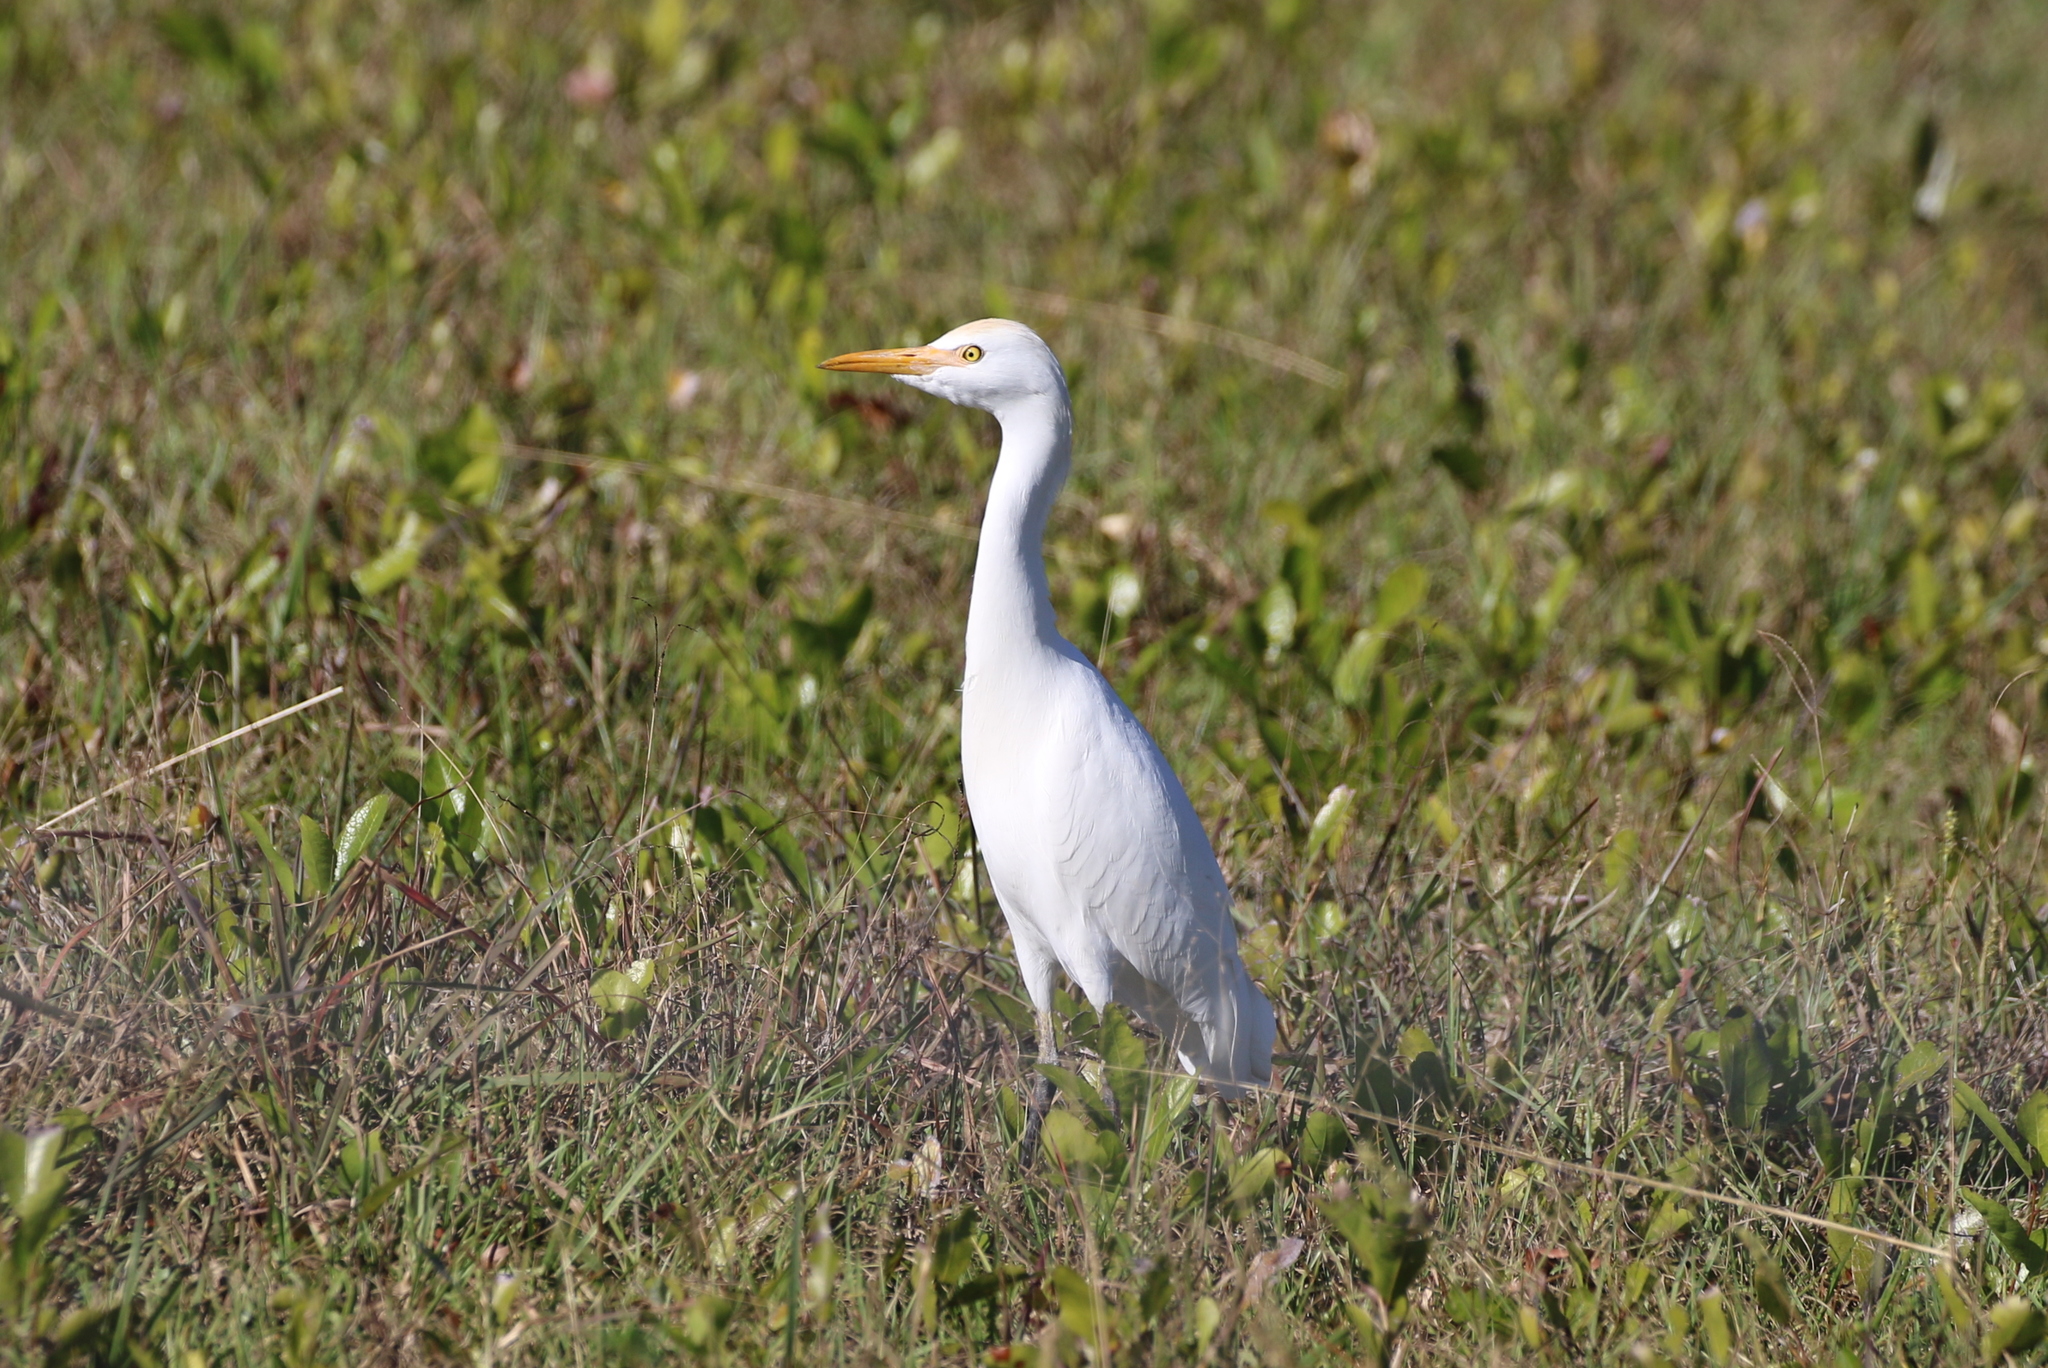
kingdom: Animalia
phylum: Chordata
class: Aves
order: Pelecaniformes
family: Ardeidae
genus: Bubulcus
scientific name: Bubulcus ibis
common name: Cattle egret
